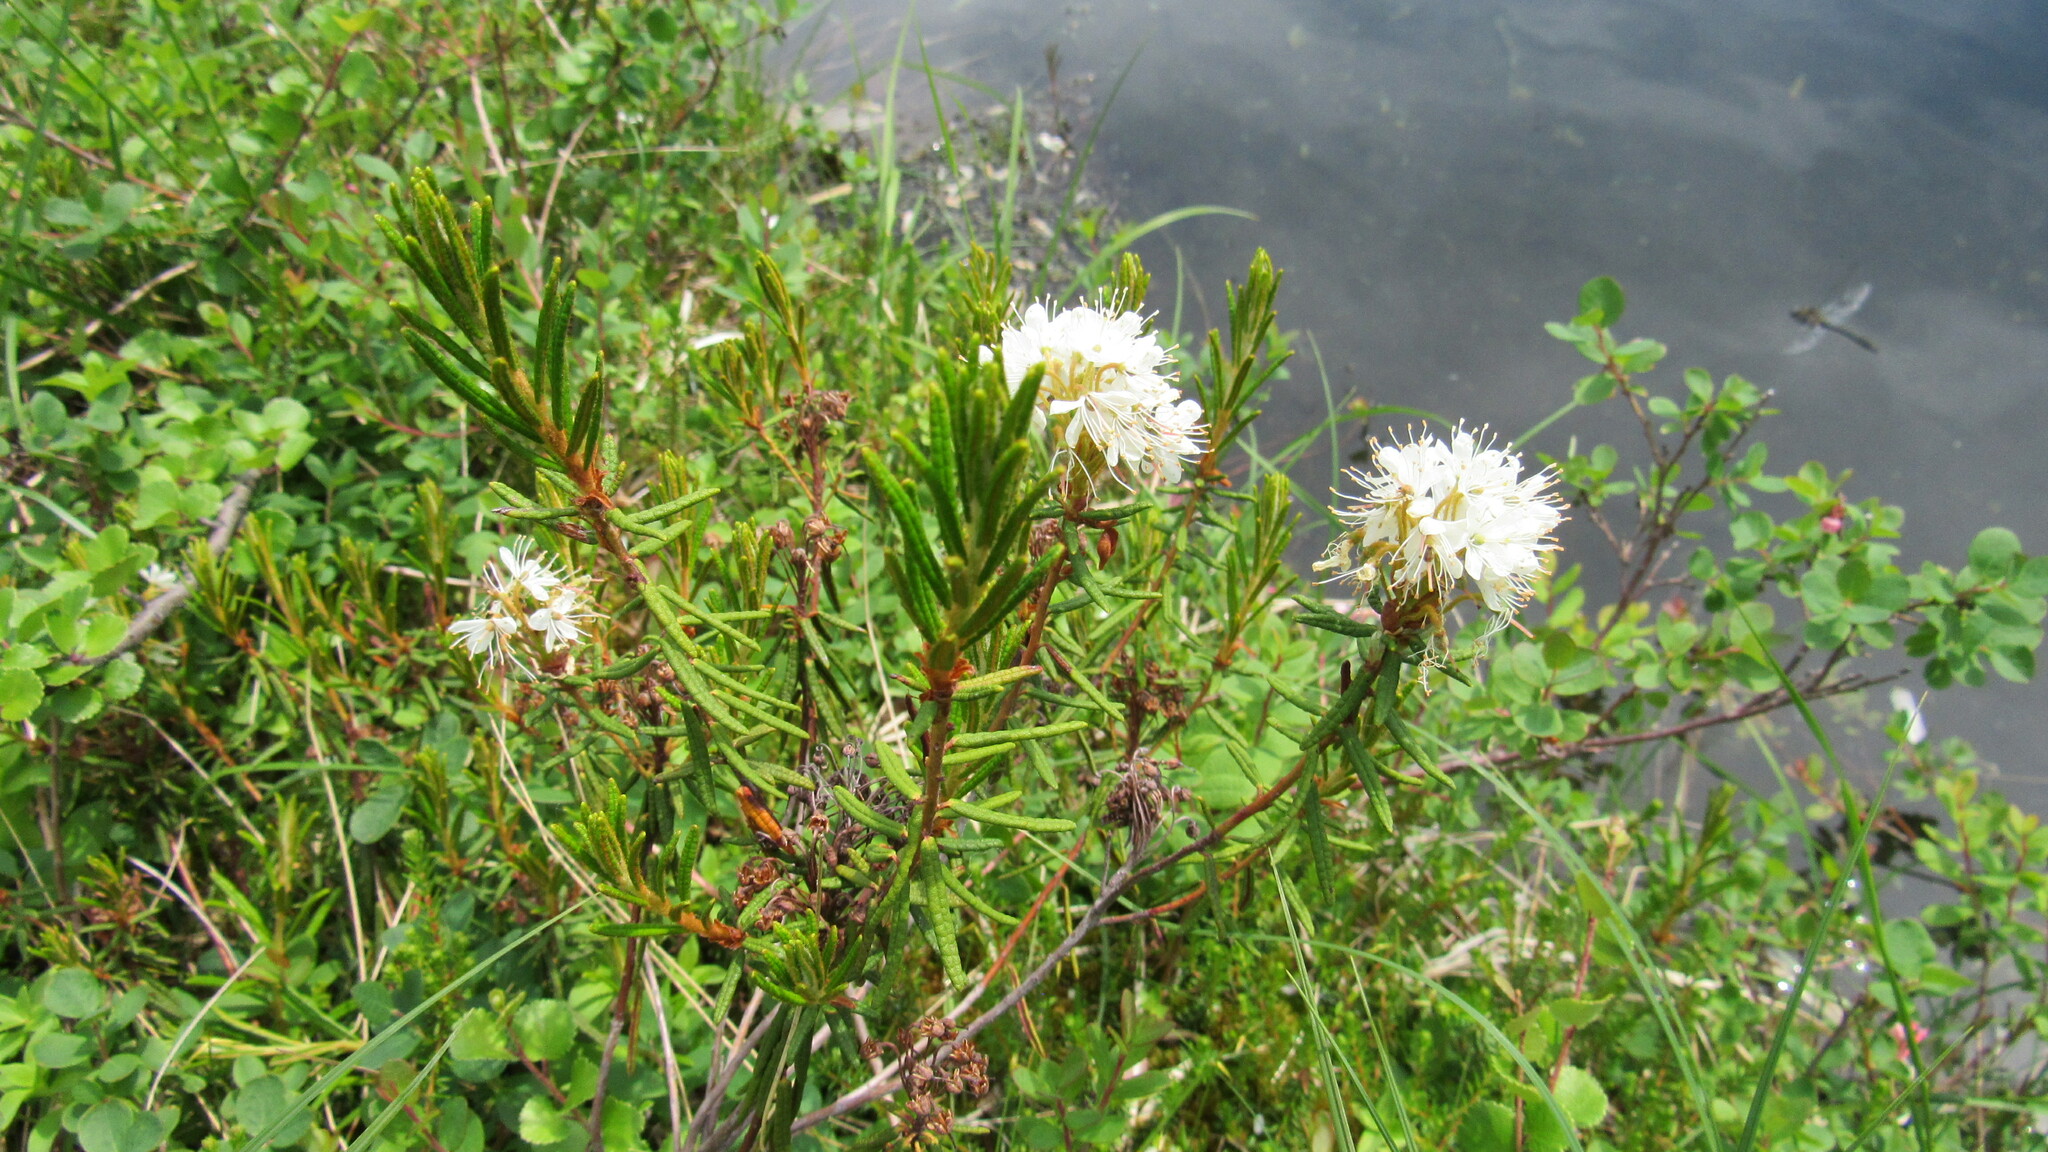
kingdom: Plantae
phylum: Tracheophyta
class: Magnoliopsida
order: Ericales
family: Ericaceae
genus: Rhododendron
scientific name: Rhododendron tomentosum
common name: Marsh labrador tea
